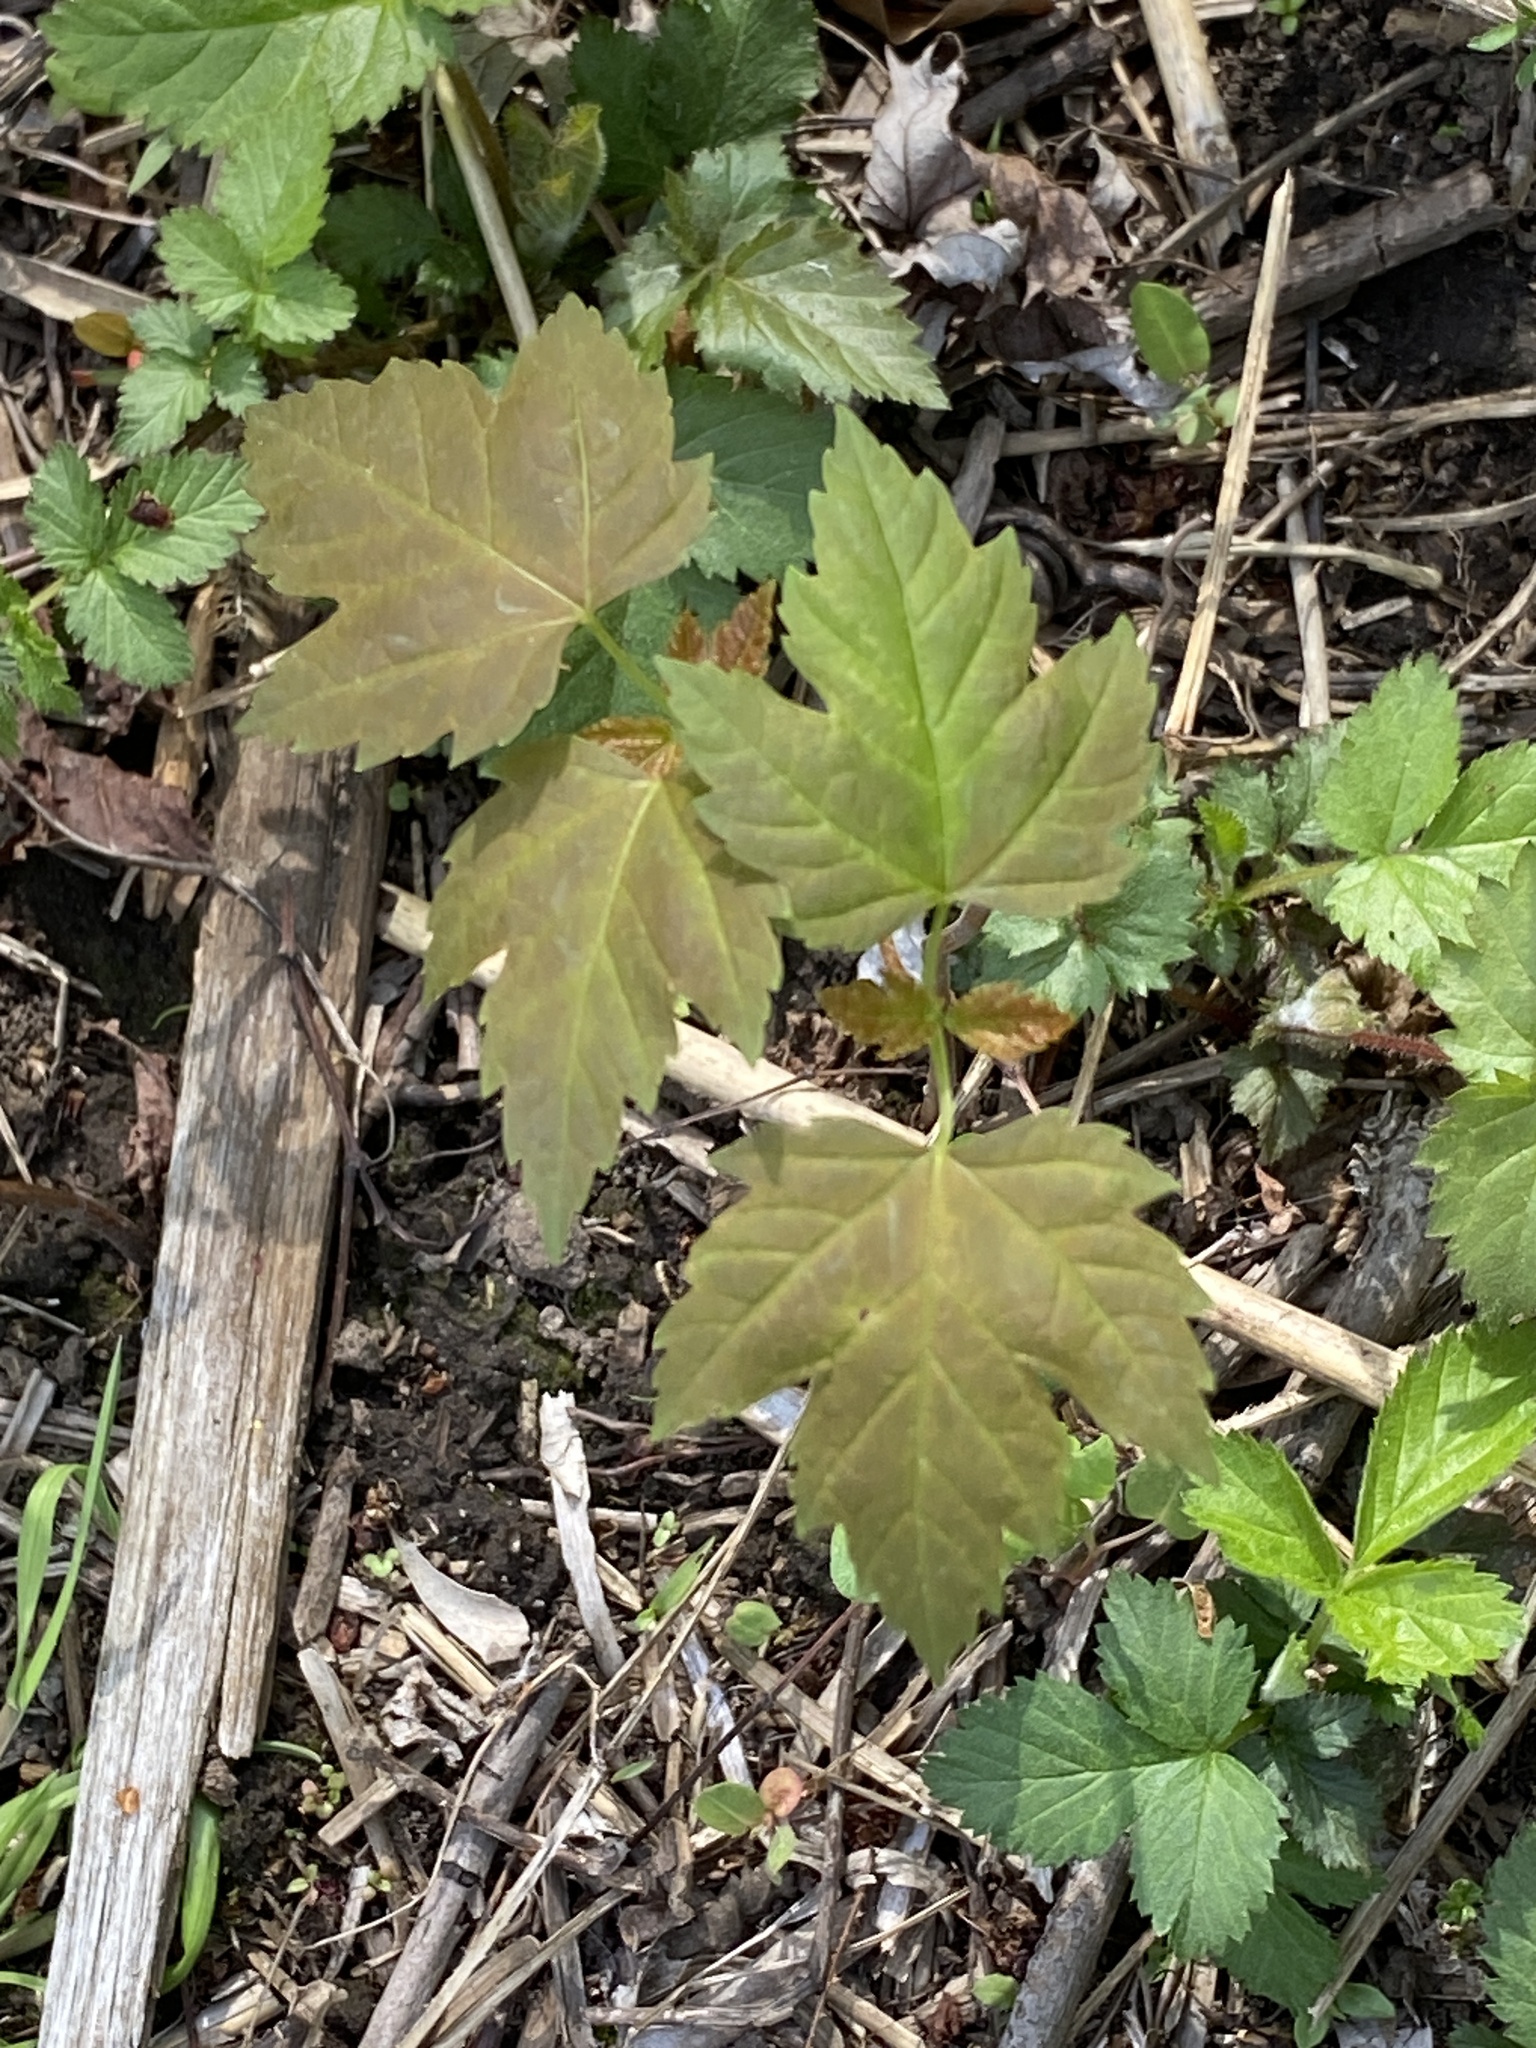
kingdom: Plantae
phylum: Tracheophyta
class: Magnoliopsida
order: Sapindales
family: Sapindaceae
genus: Acer
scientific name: Acer rubrum
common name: Red maple
